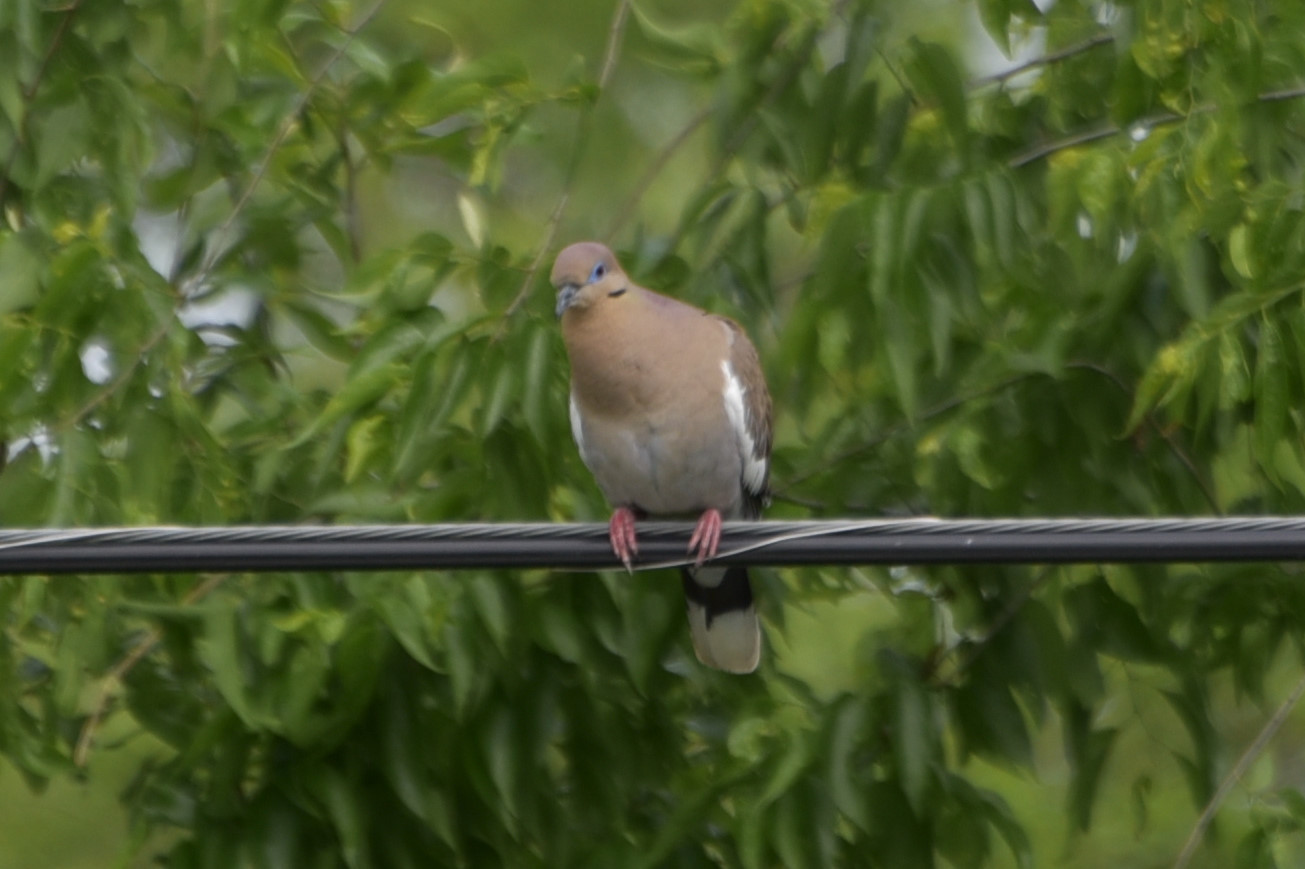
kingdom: Animalia
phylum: Chordata
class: Aves
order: Columbiformes
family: Columbidae
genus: Zenaida
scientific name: Zenaida asiatica
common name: White-winged dove
